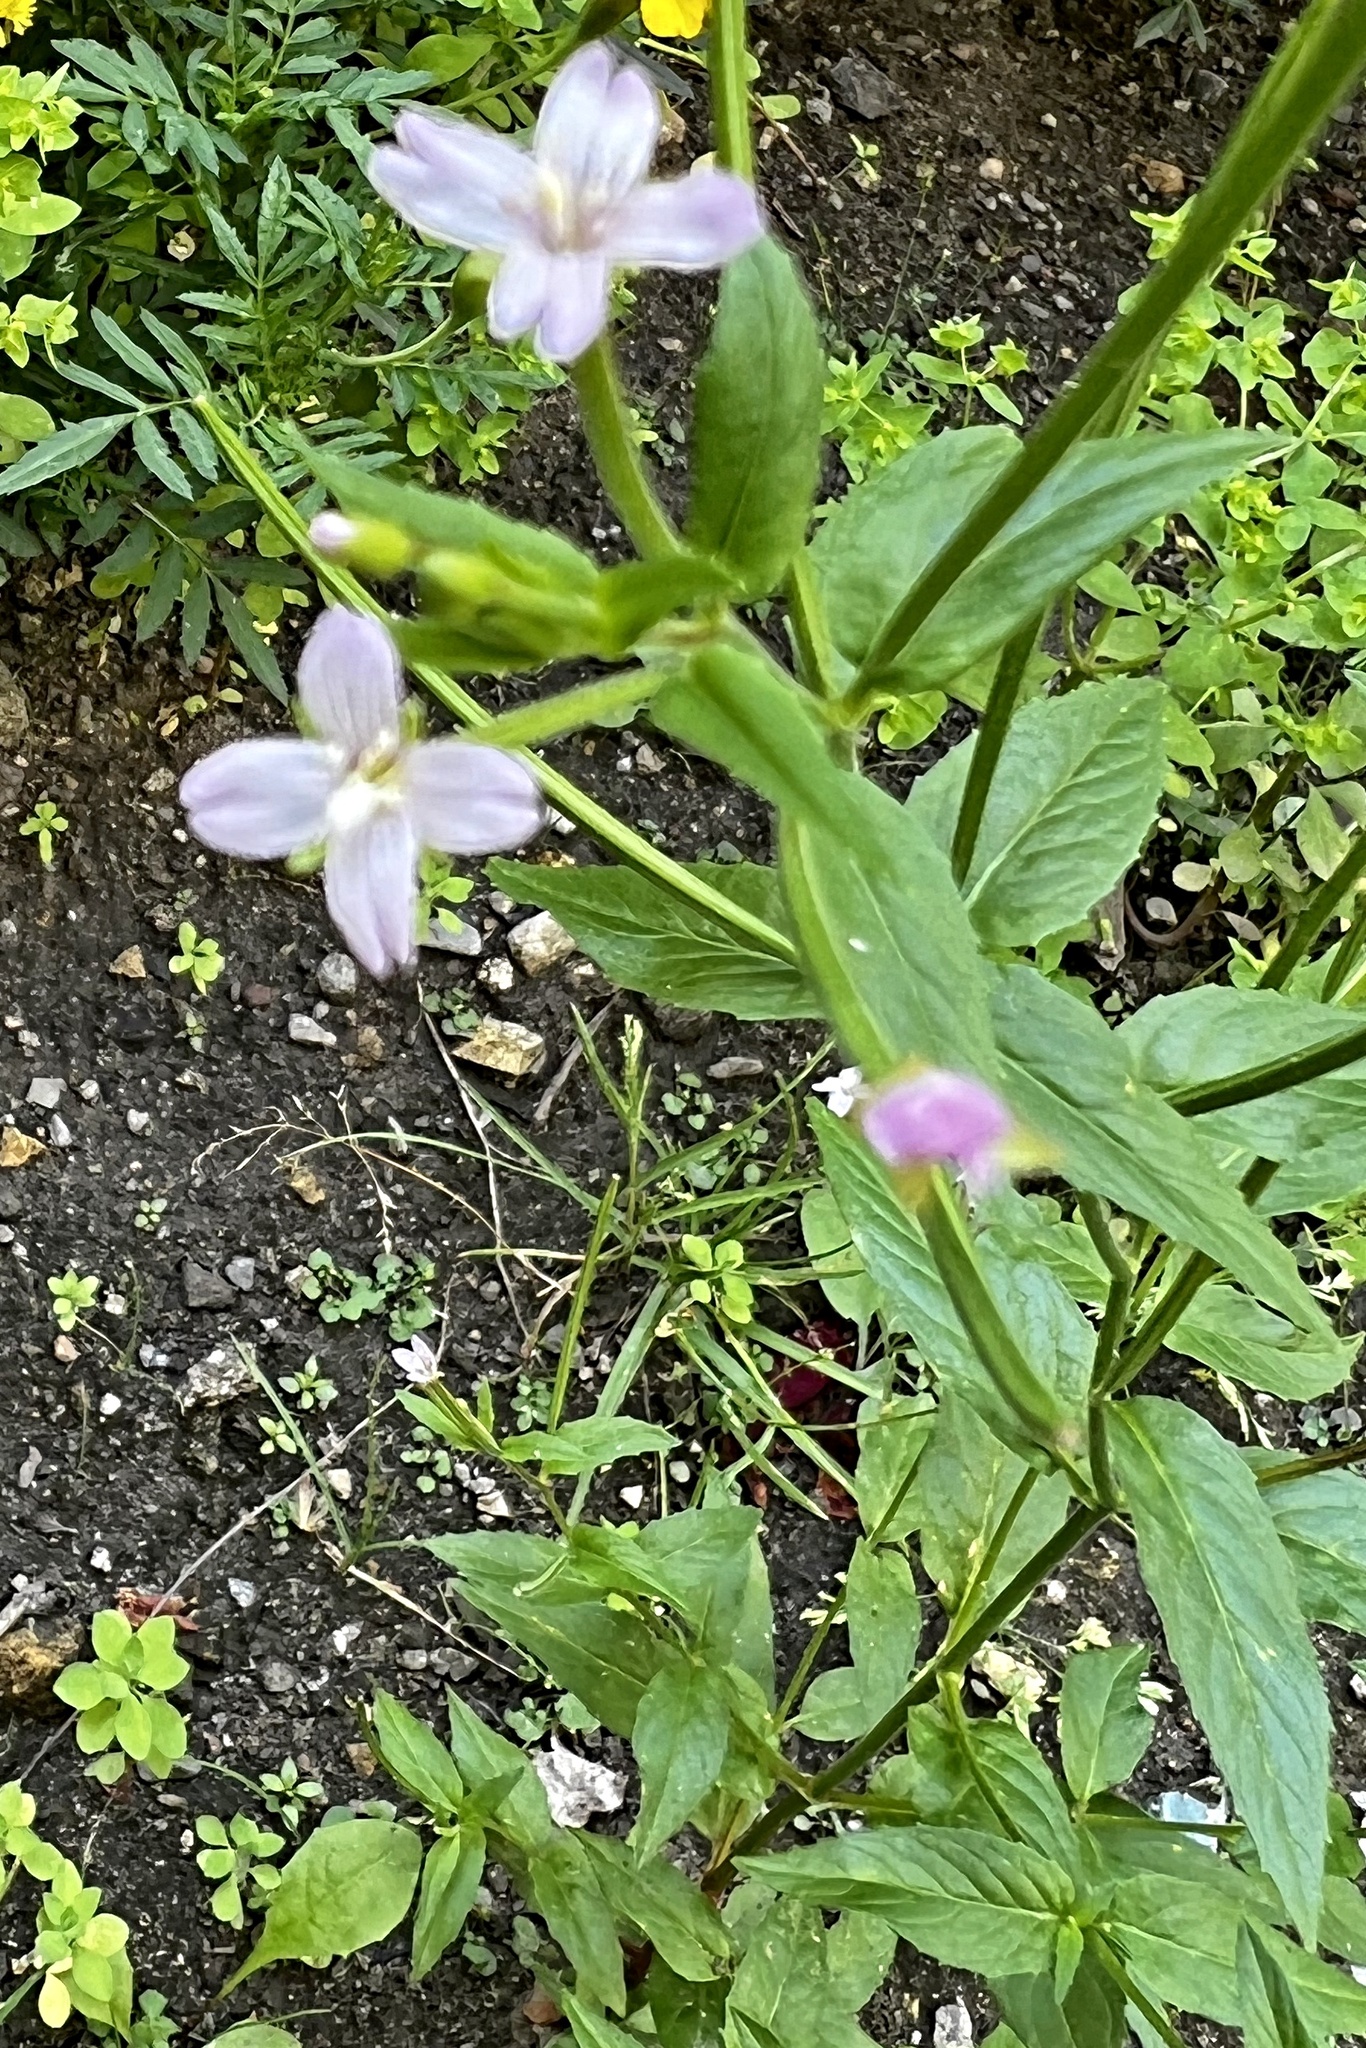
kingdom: Plantae
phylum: Tracheophyta
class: Magnoliopsida
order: Myrtales
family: Onagraceae
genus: Epilobium
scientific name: Epilobium ciliatum
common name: American willowherb
